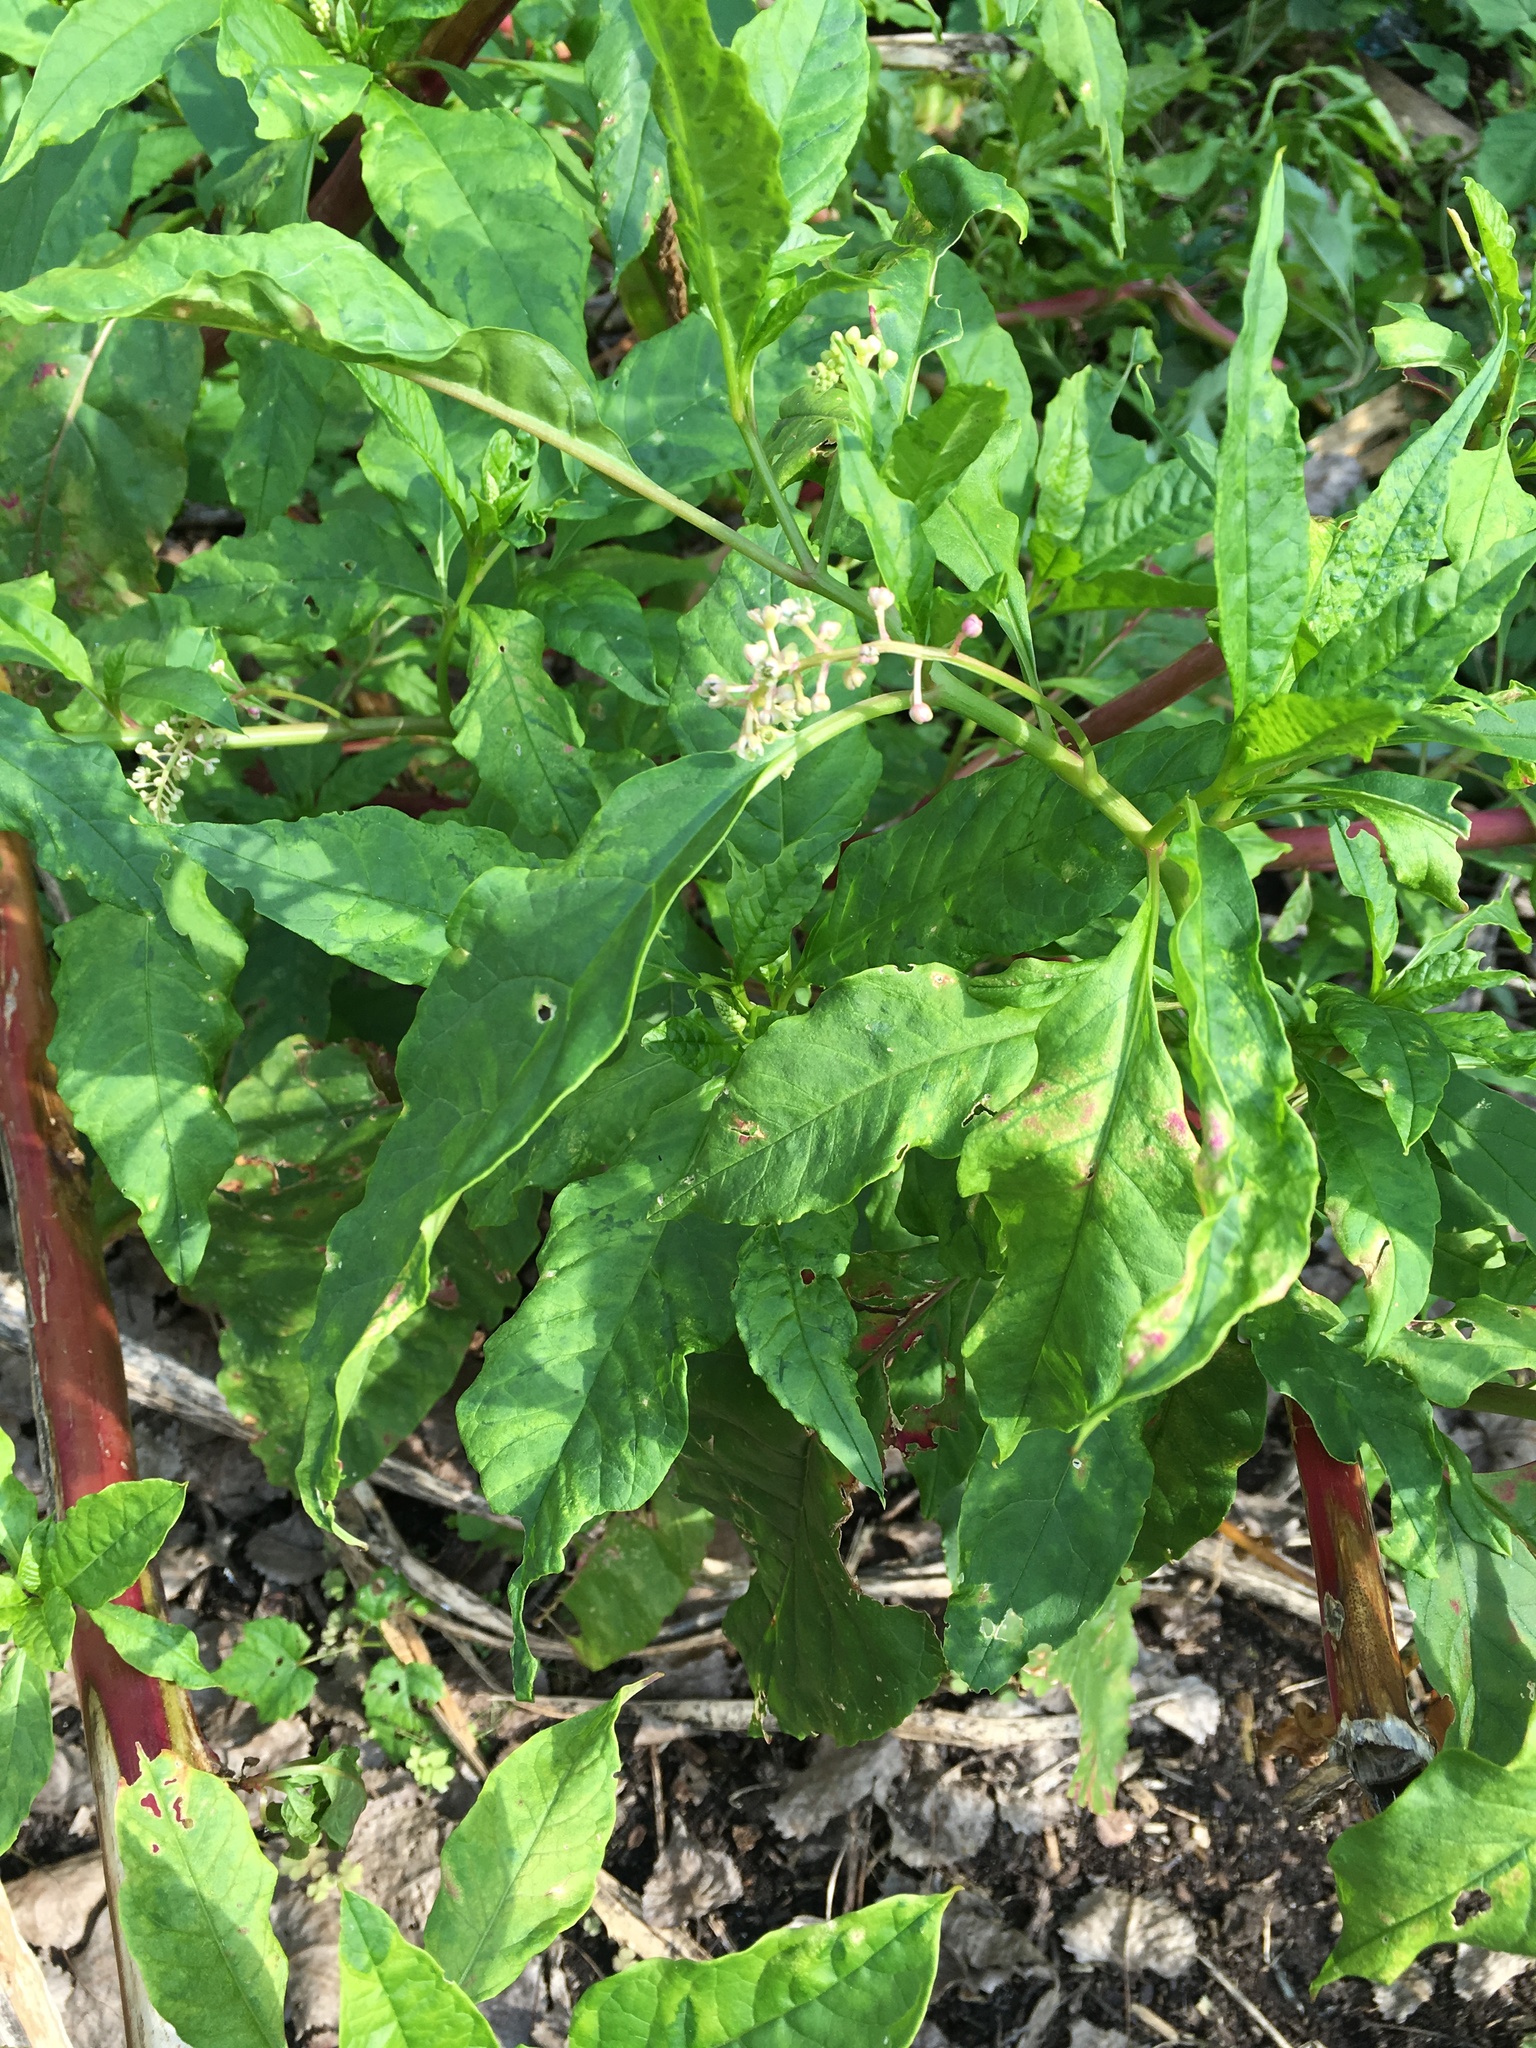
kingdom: Plantae
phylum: Tracheophyta
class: Magnoliopsida
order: Caryophyllales
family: Phytolaccaceae
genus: Phytolacca
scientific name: Phytolacca americana
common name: American pokeweed
